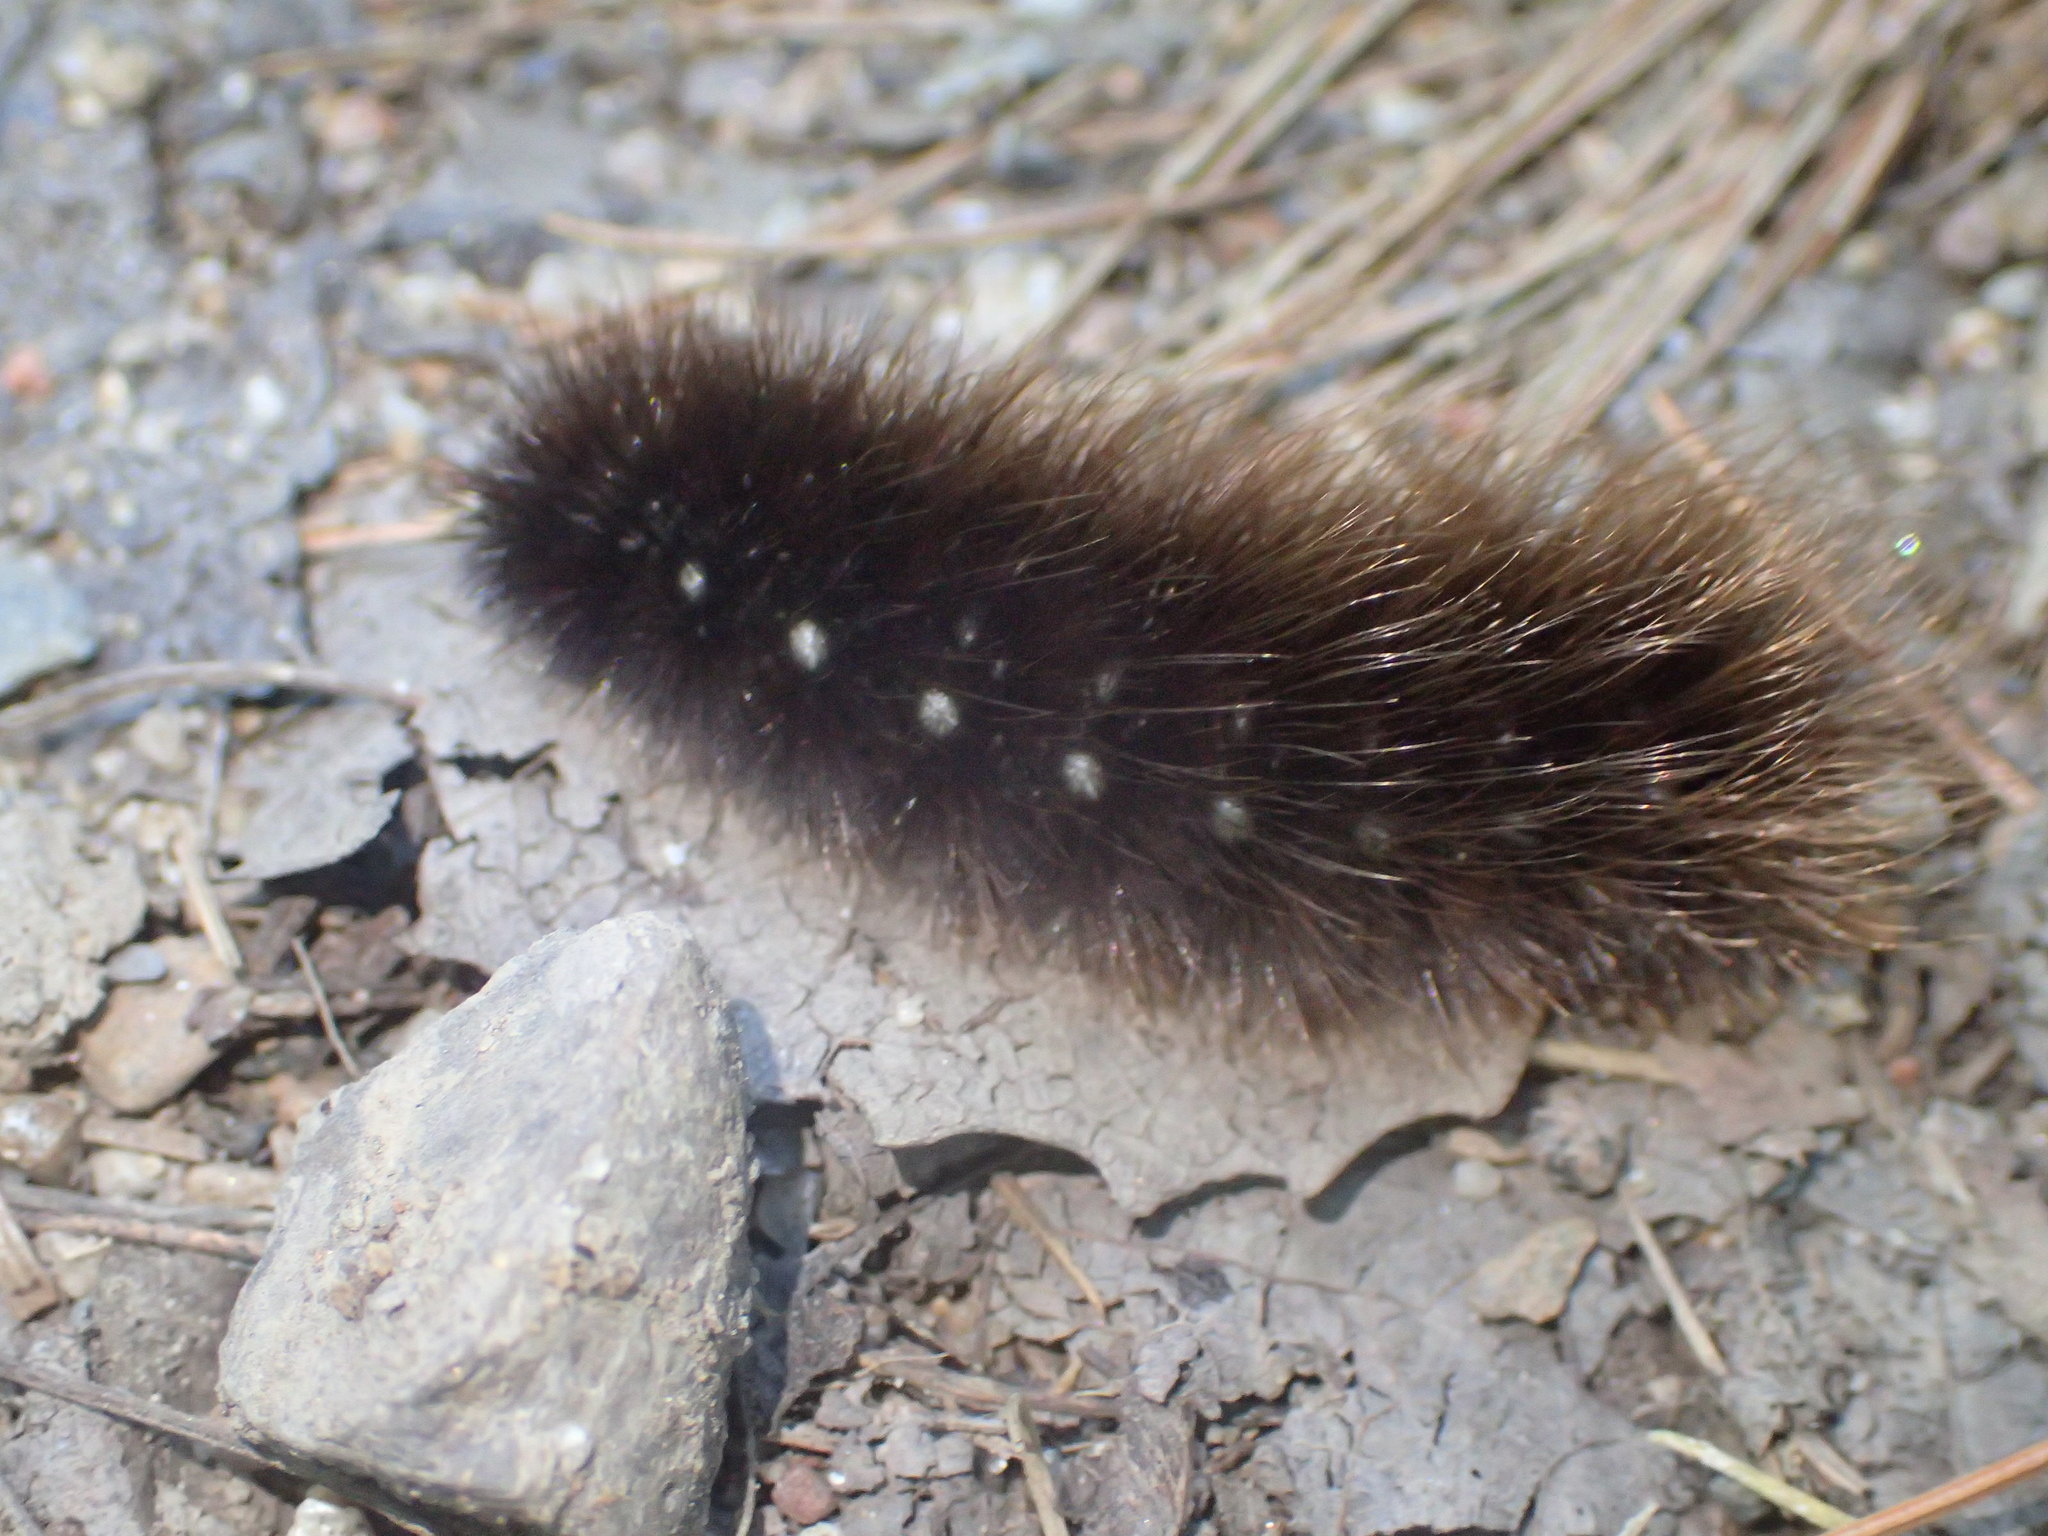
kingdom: Animalia
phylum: Arthropoda
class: Insecta
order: Lepidoptera
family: Erebidae
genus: Arctia
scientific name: Arctia parthenos
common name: St. lawrence tiger moth
